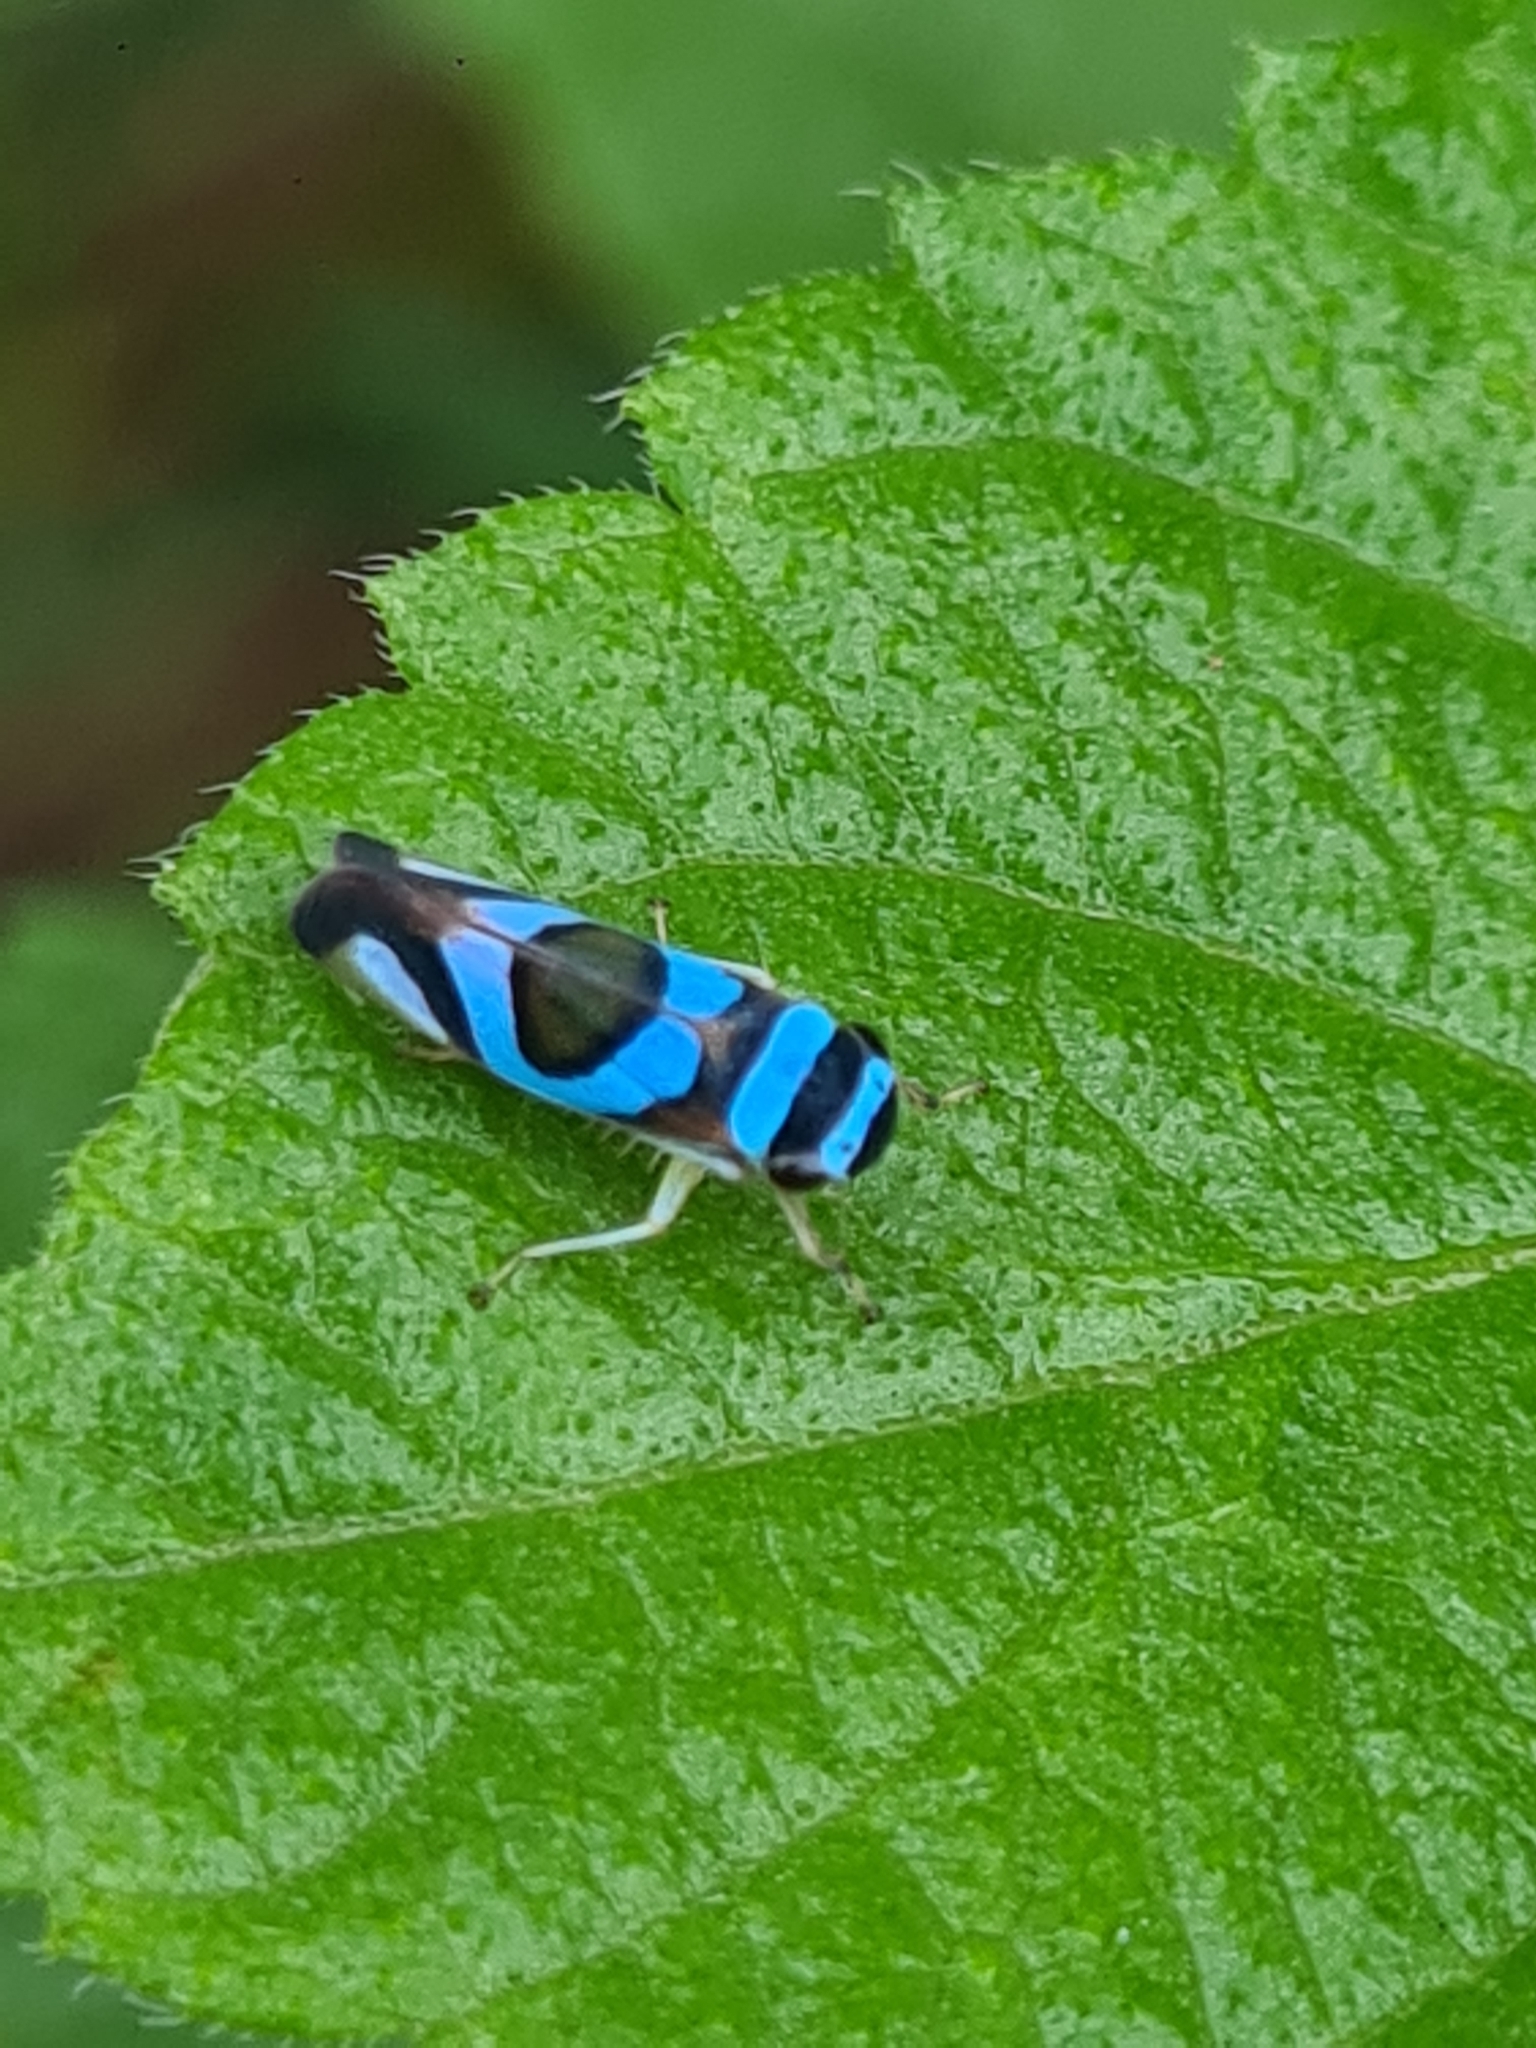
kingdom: Animalia
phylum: Arthropoda
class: Insecta
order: Hemiptera
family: Cicadellidae
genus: Macugonalia
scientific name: Macugonalia moesta
